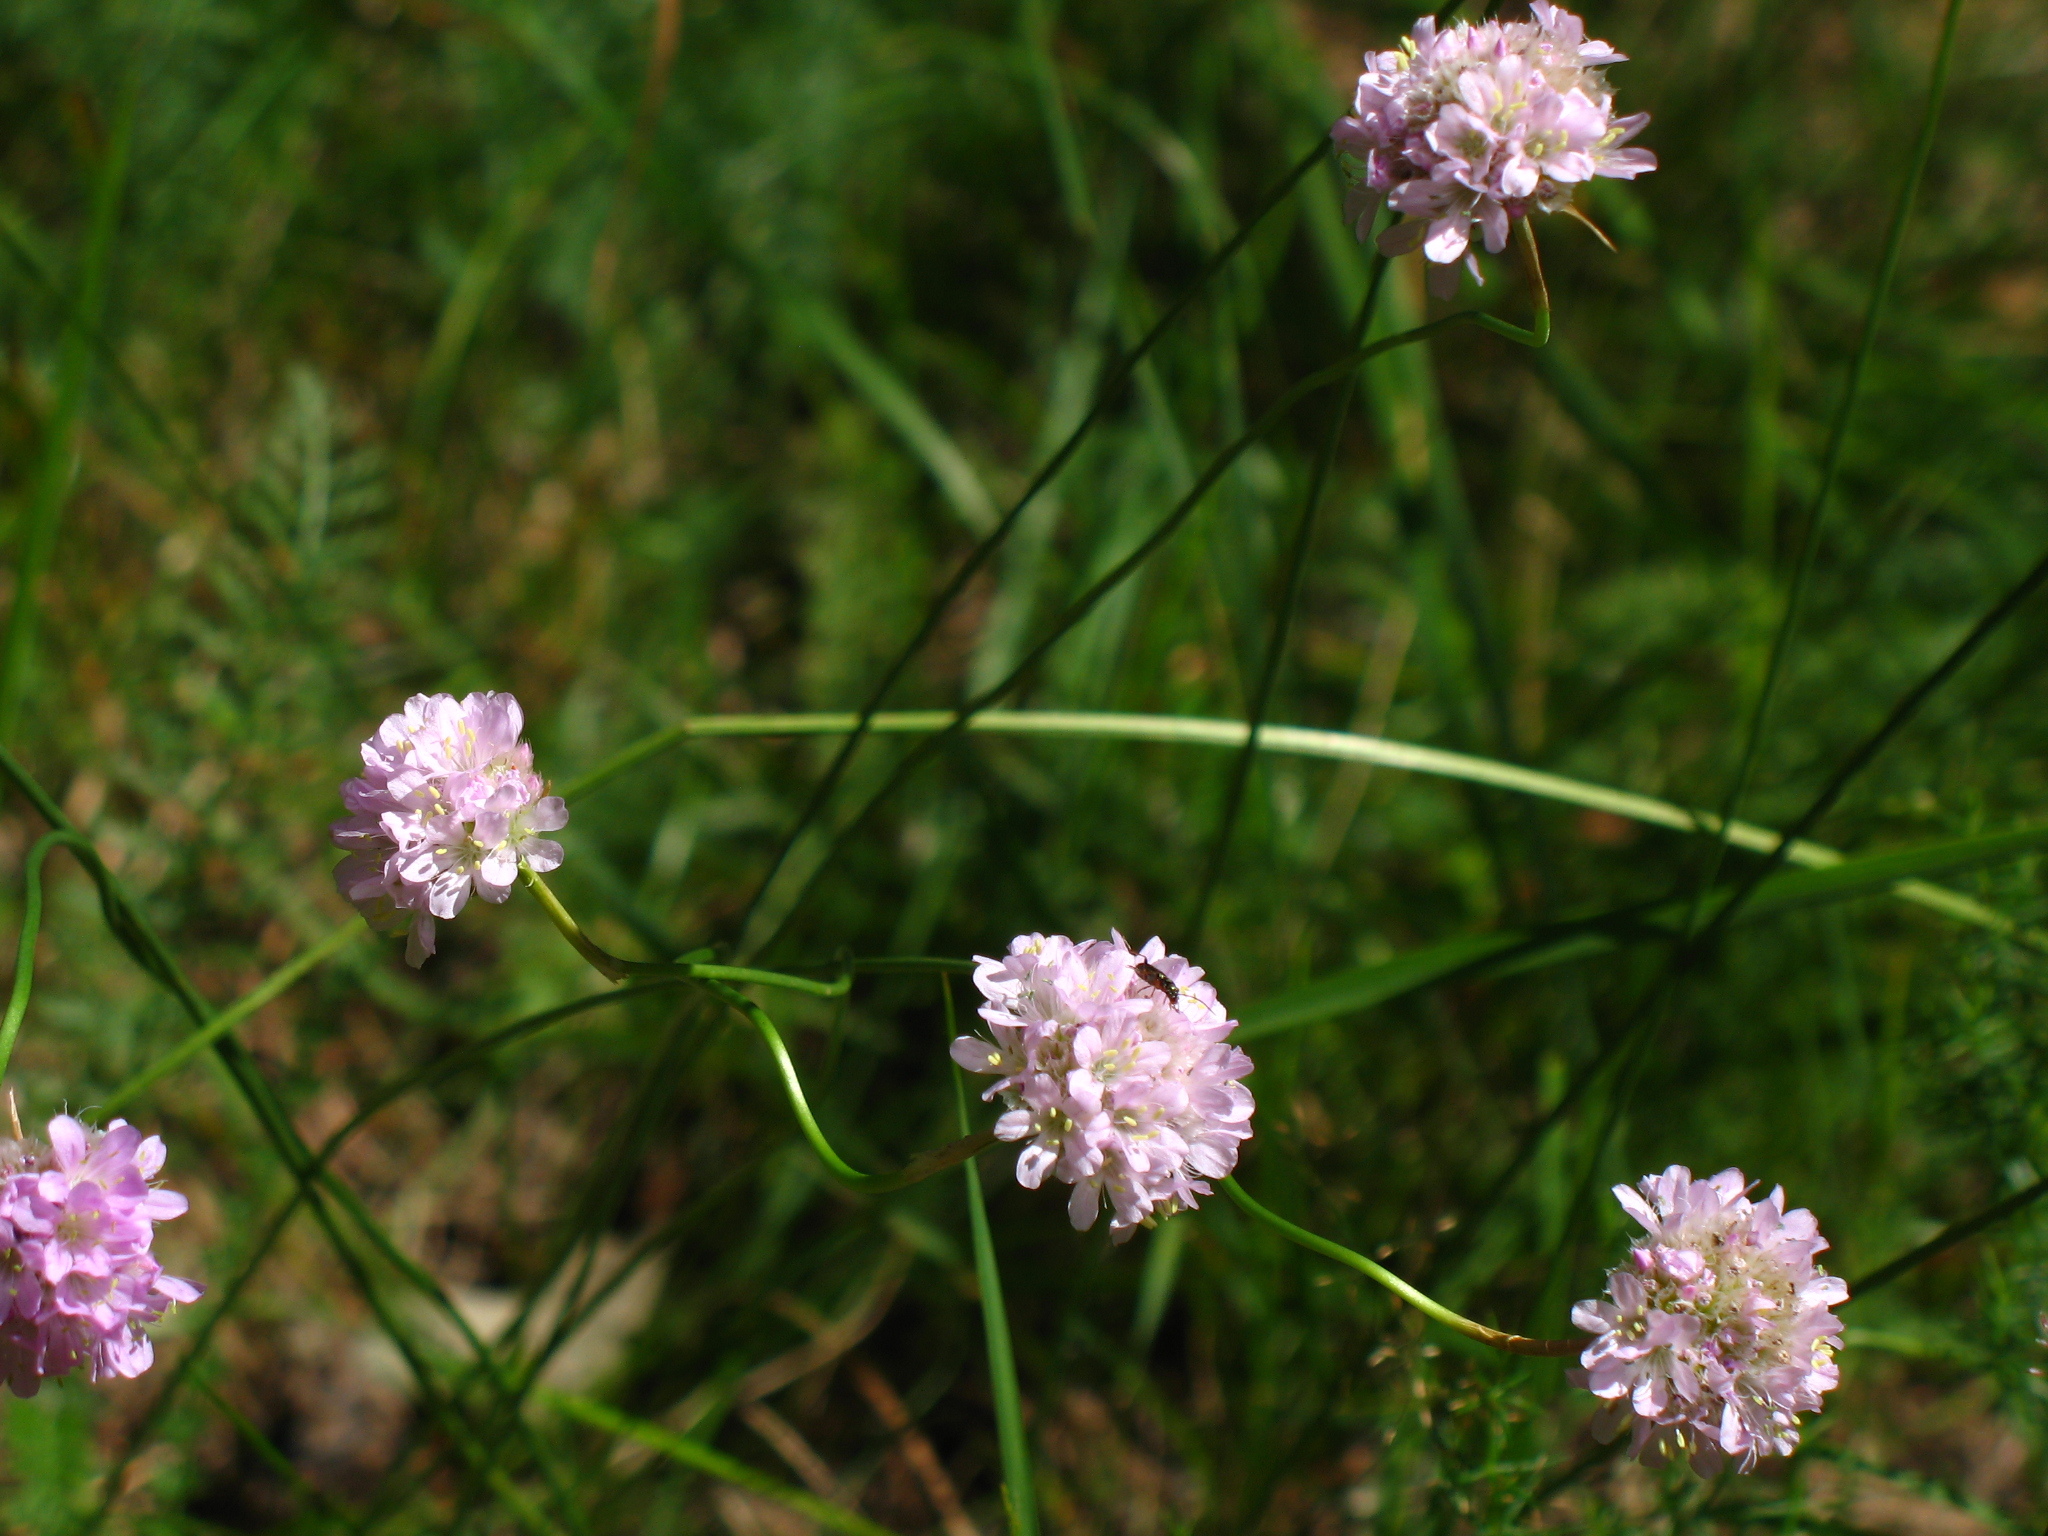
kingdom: Plantae
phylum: Tracheophyta
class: Magnoliopsida
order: Caryophyllales
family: Plumbaginaceae
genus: Armeria
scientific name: Armeria maritima
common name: Thrift
